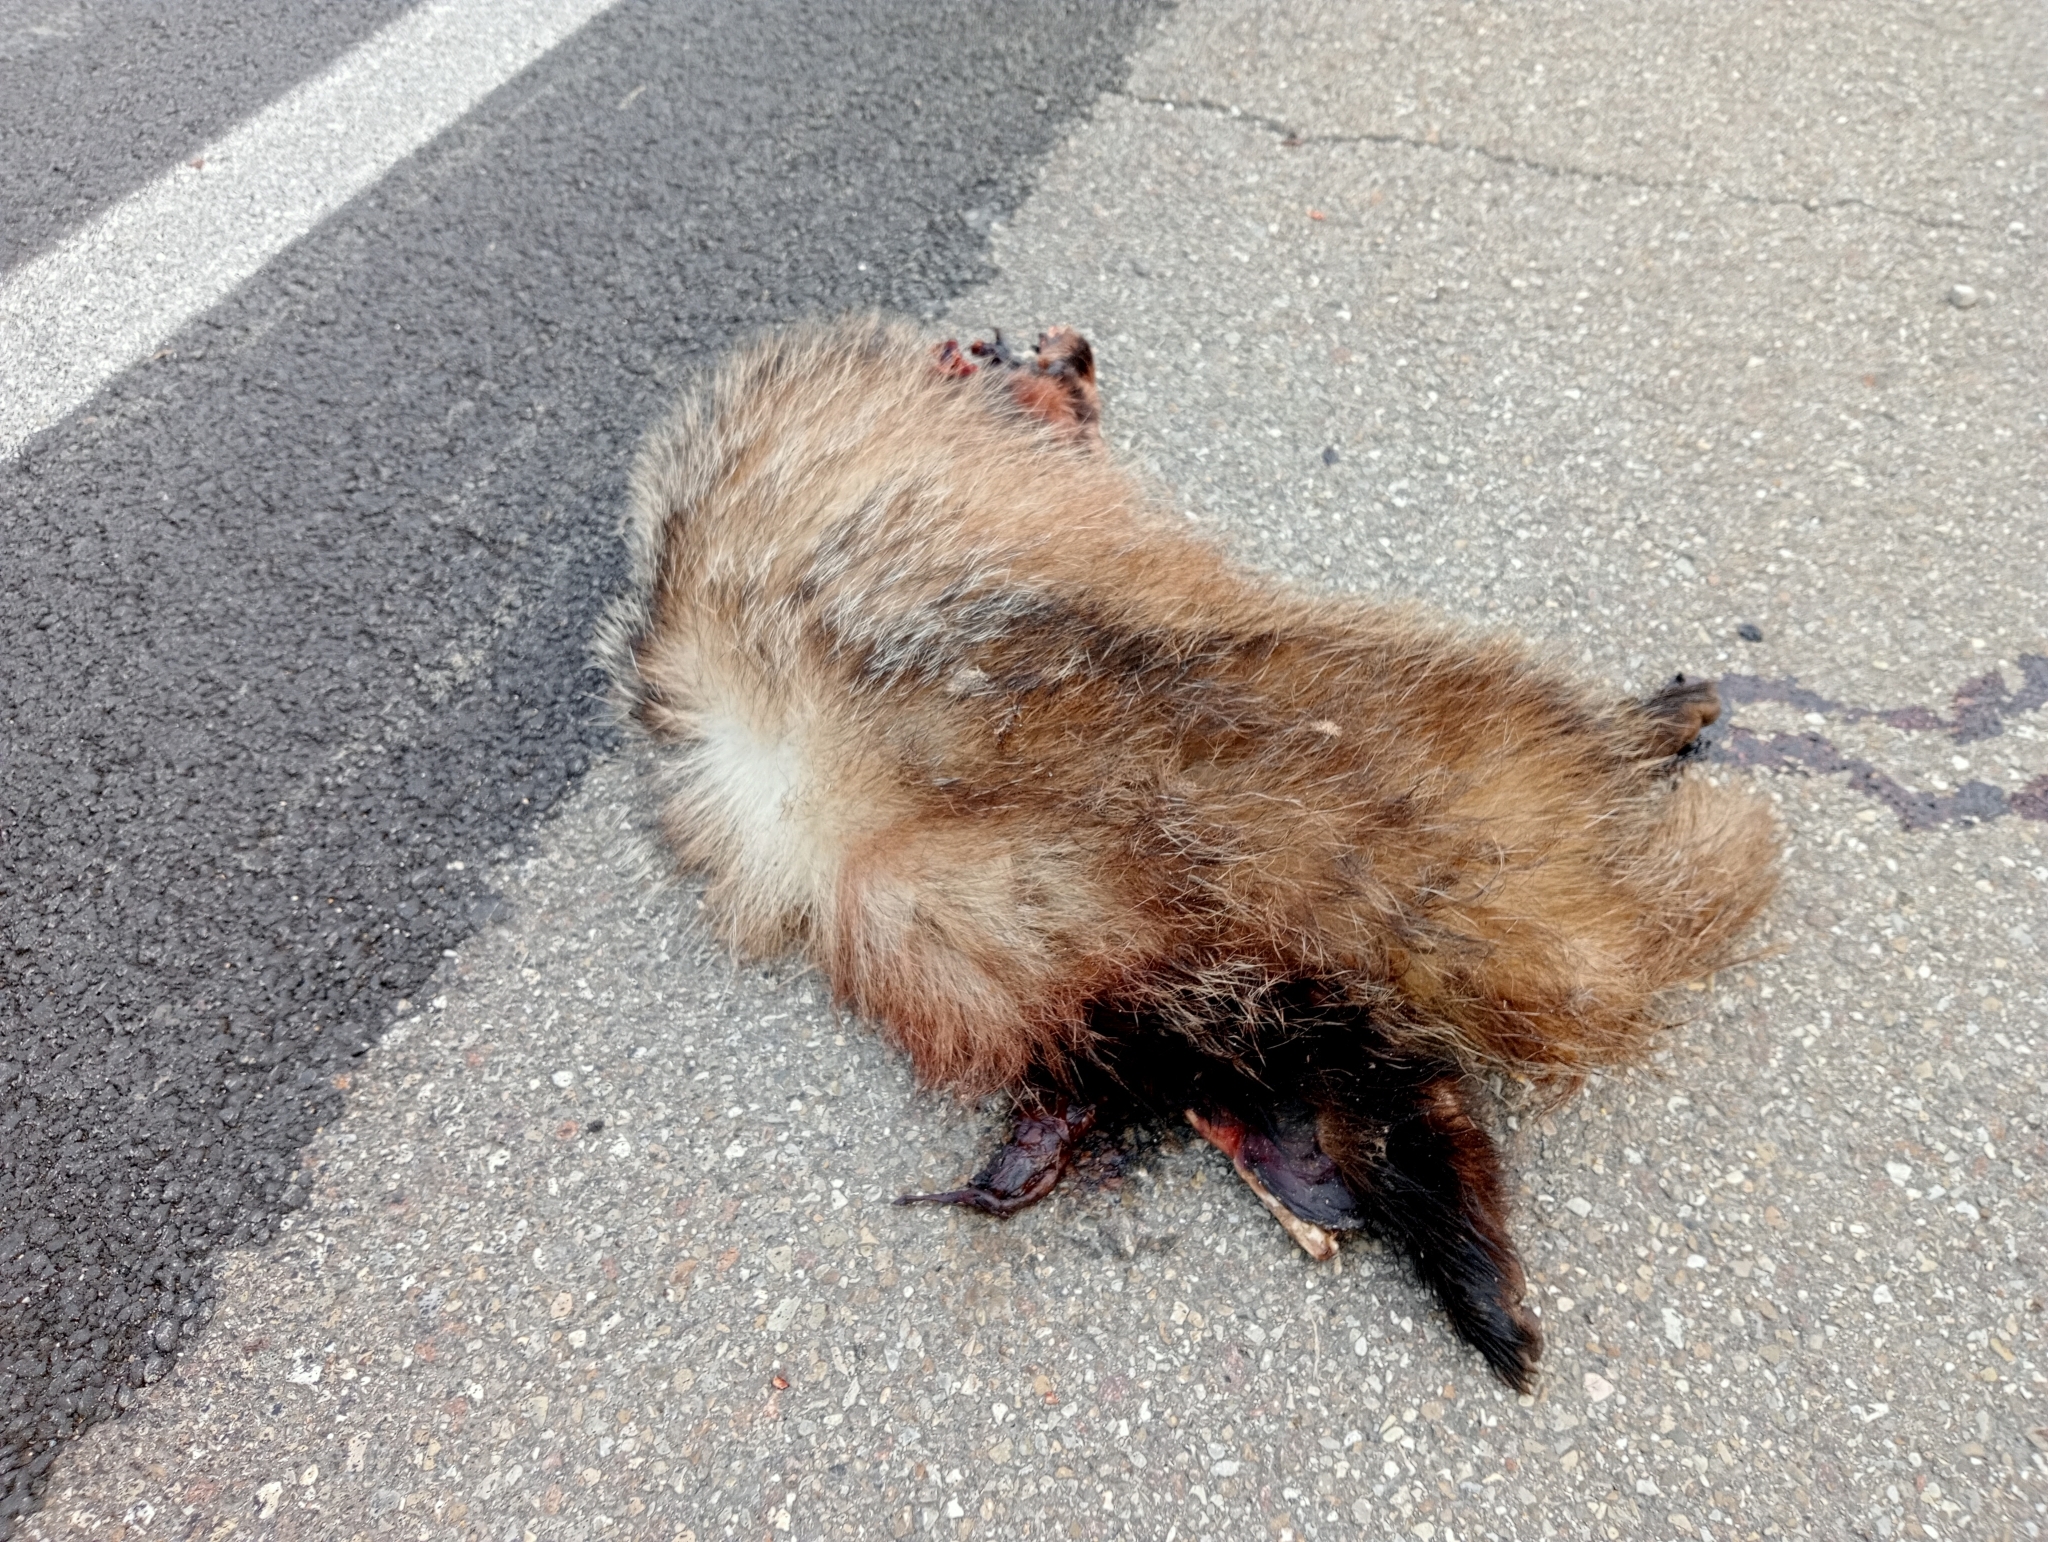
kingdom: Animalia
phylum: Chordata
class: Mammalia
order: Carnivora
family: Mustelidae
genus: Meles
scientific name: Meles meles
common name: Eurasian badger
